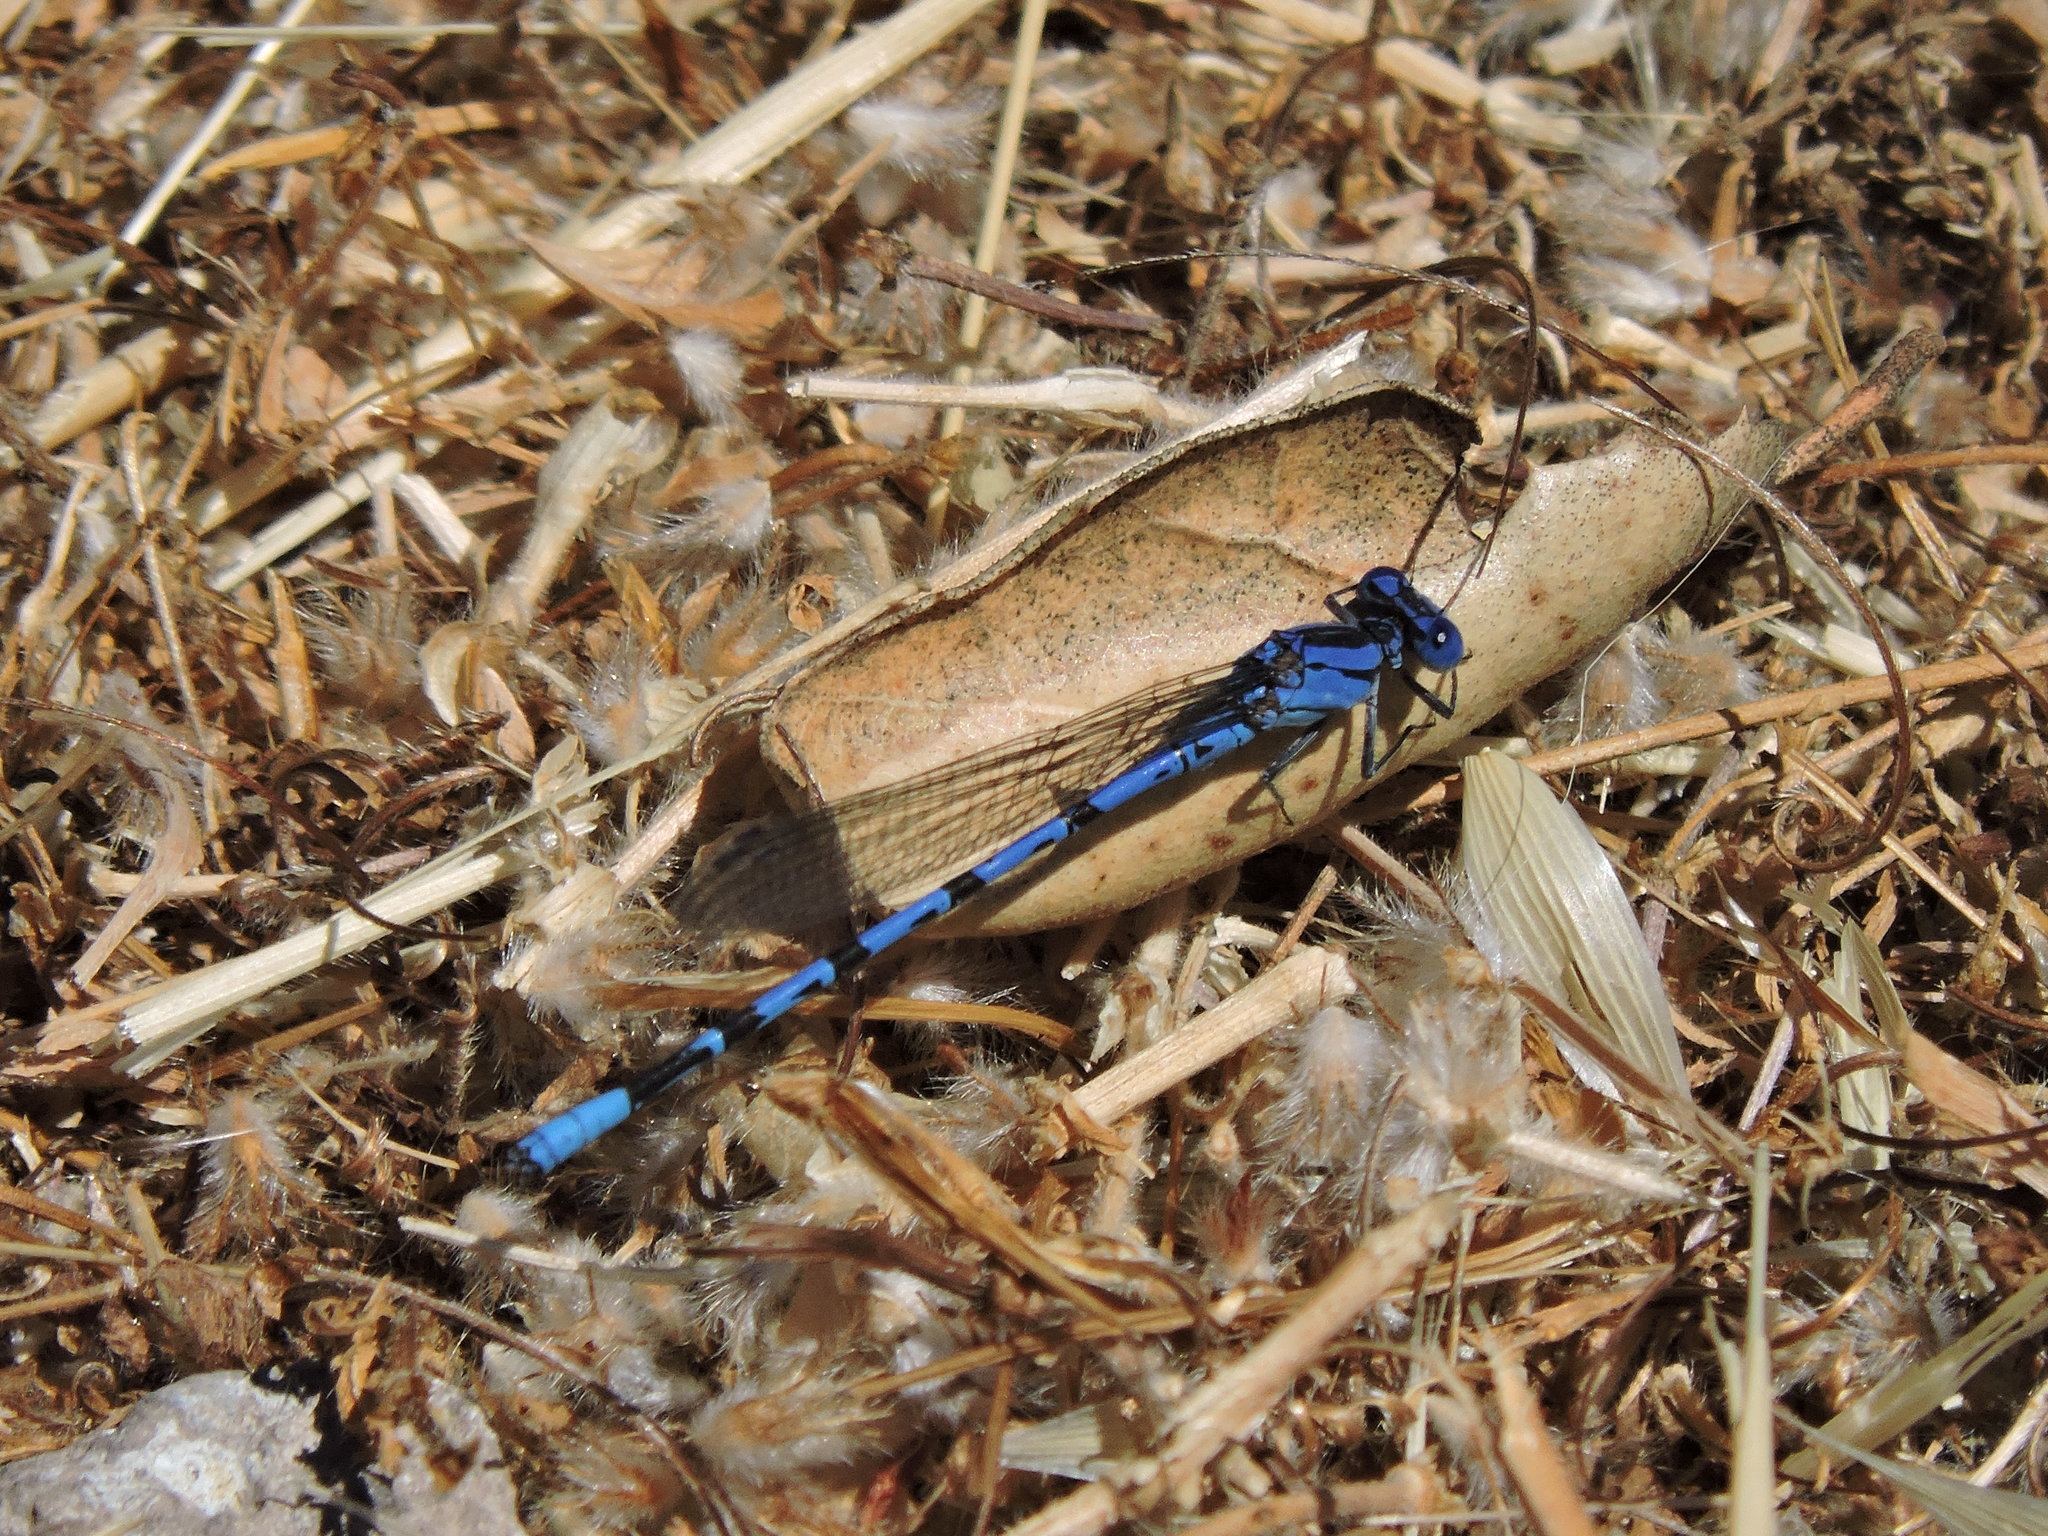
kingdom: Animalia
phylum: Arthropoda
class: Insecta
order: Odonata
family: Coenagrionidae
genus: Argia
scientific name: Argia vivida
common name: Vivid dancer
